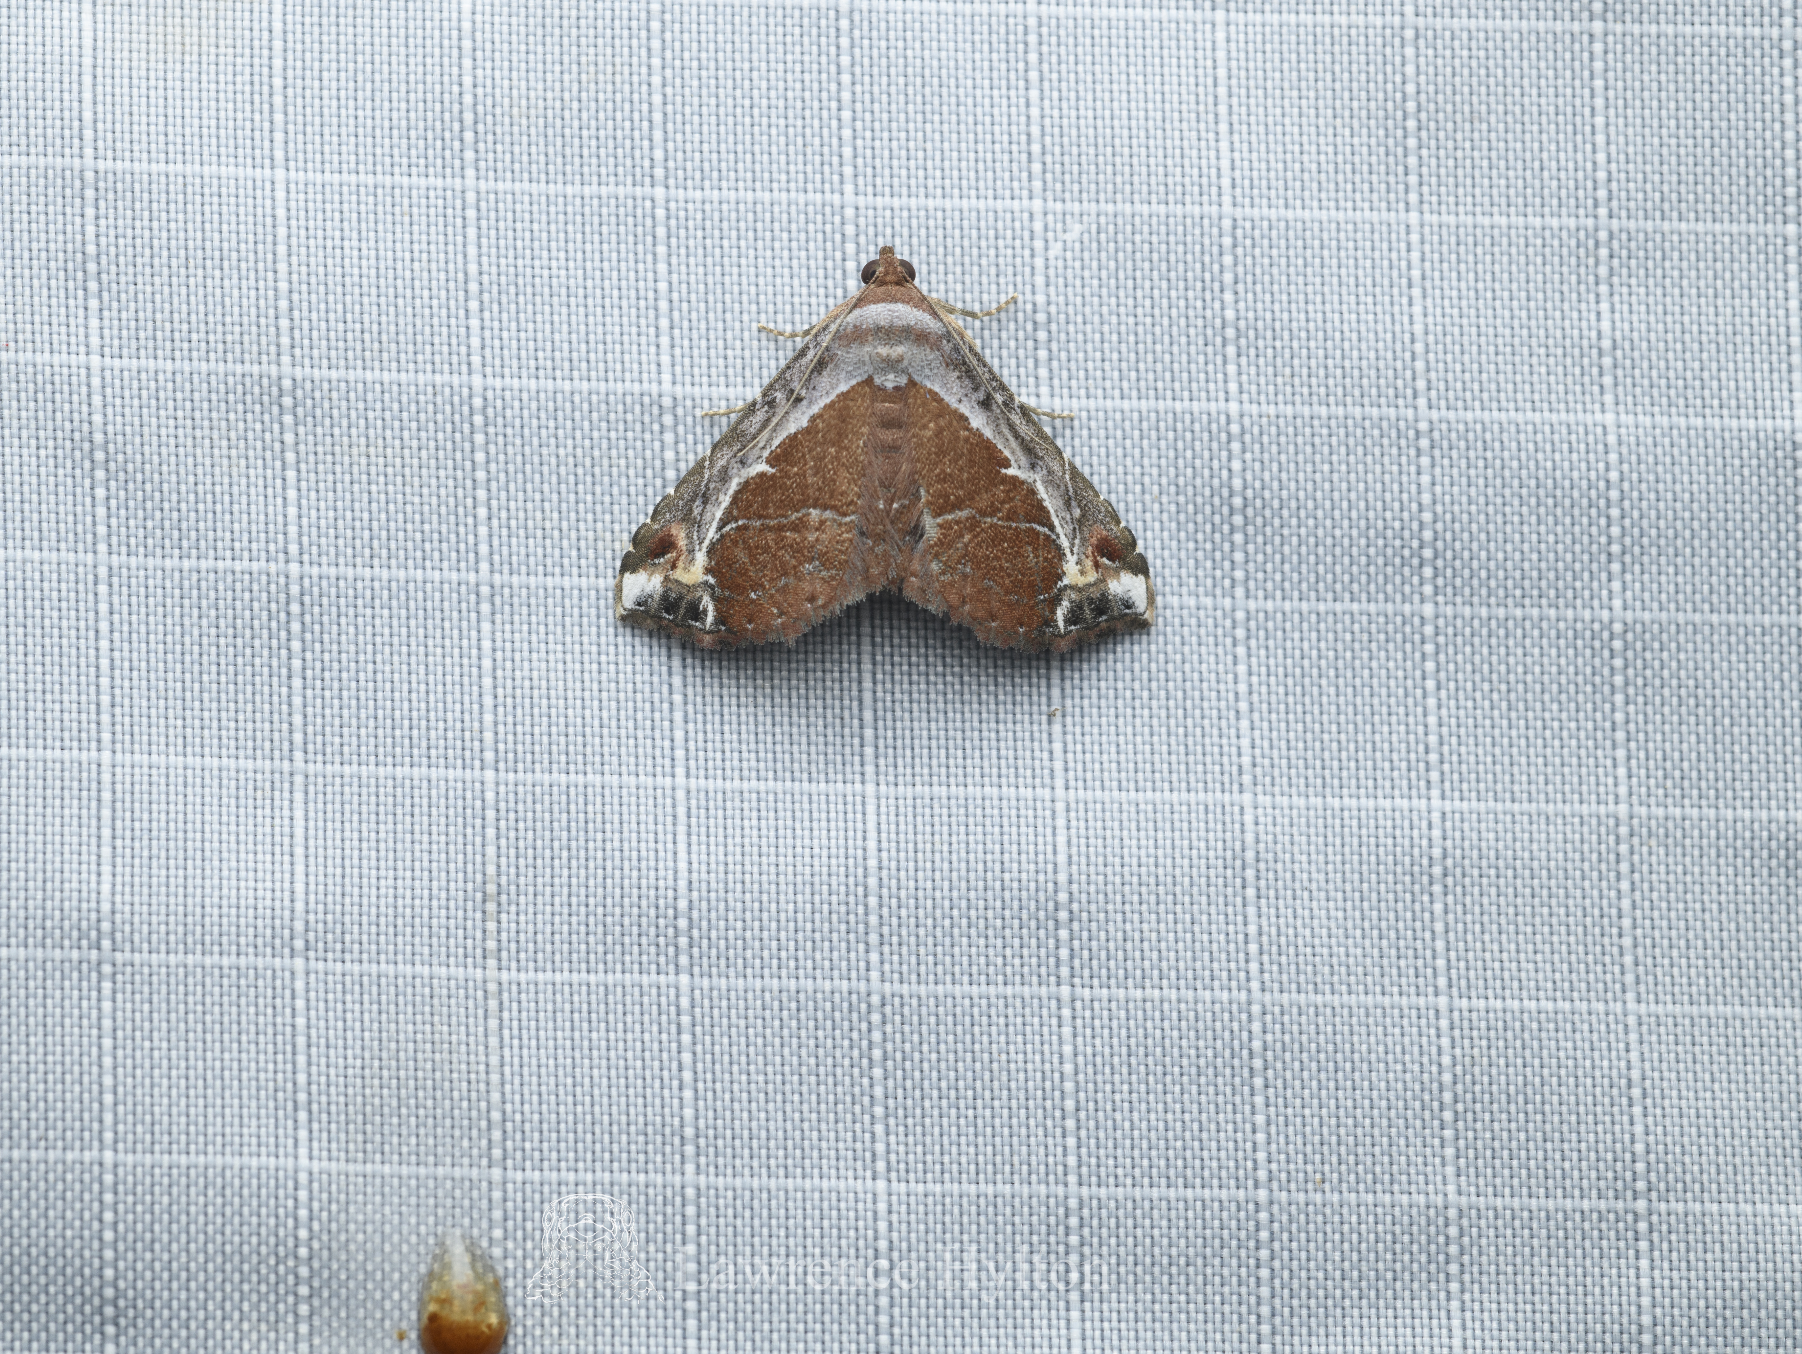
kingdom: Animalia
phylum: Arthropoda
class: Insecta
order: Lepidoptera
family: Erebidae
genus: Zurobata
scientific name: Zurobata vacillans
